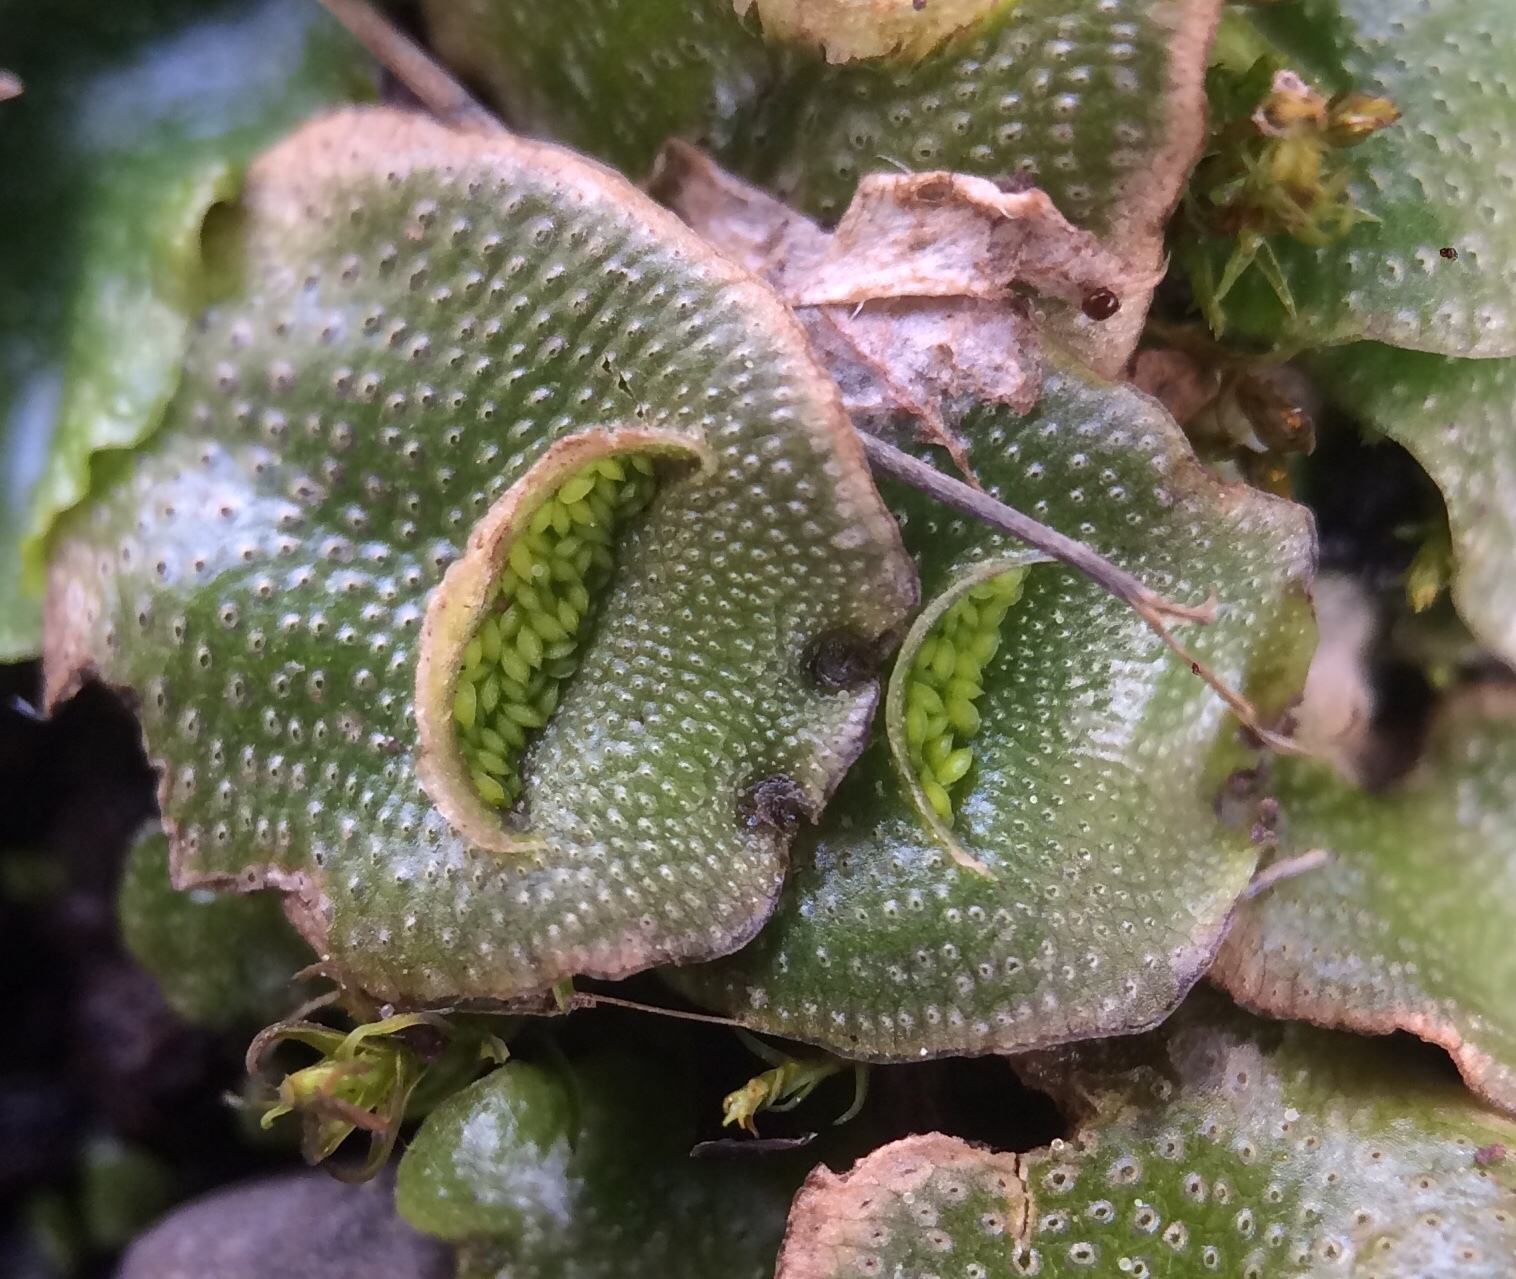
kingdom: Plantae
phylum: Marchantiophyta
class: Marchantiopsida
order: Lunulariales
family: Lunulariaceae
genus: Lunularia
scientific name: Lunularia cruciata
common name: Crescent-cup liverwort
